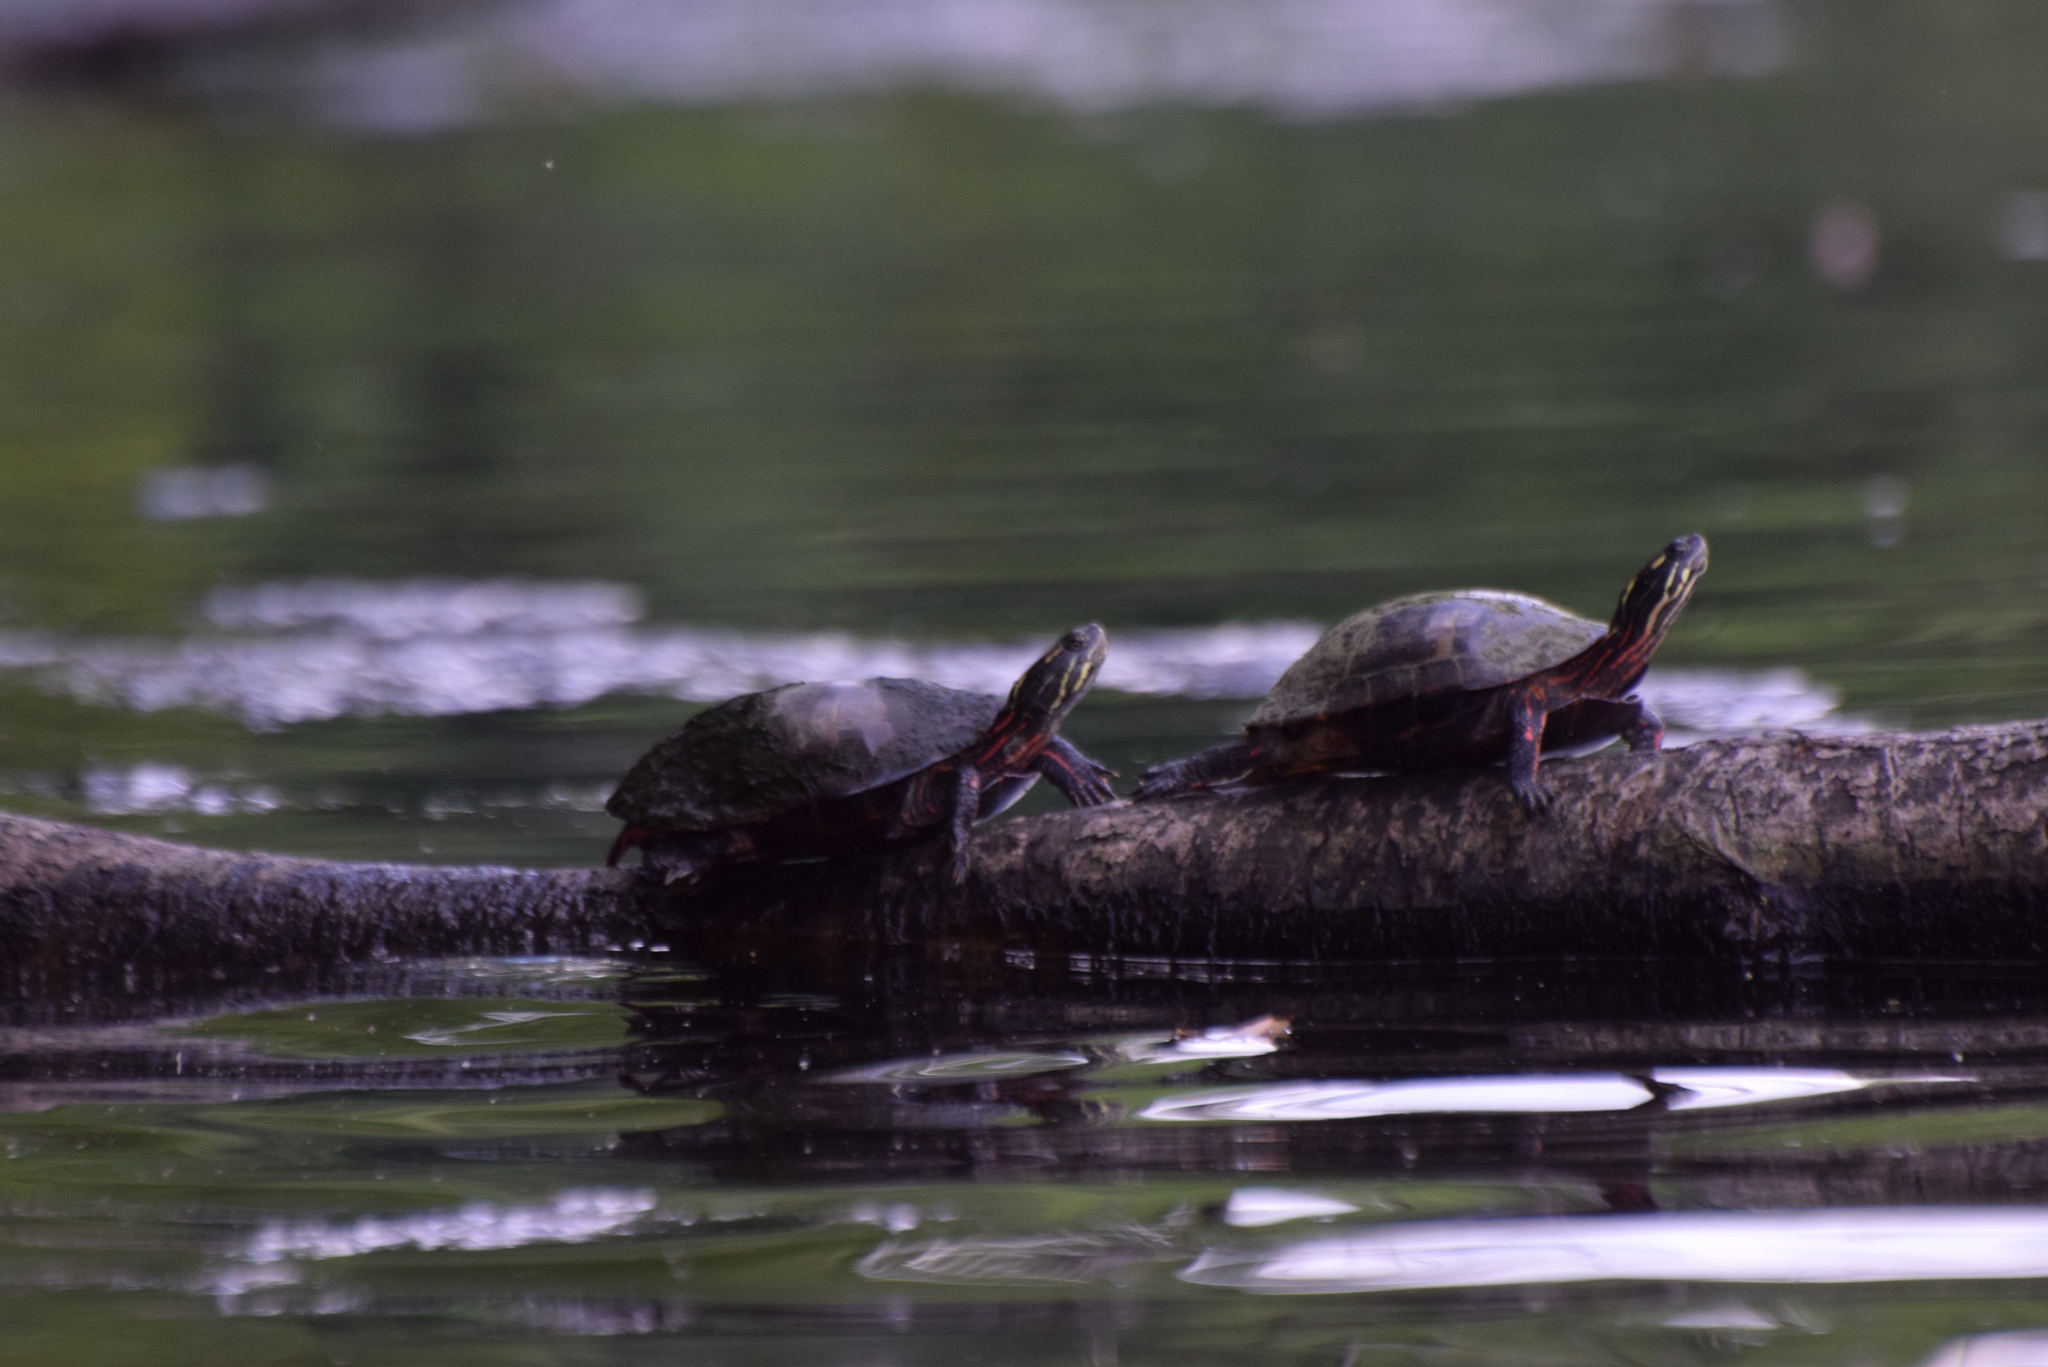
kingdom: Animalia
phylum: Chordata
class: Testudines
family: Emydidae
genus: Chrysemys
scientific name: Chrysemys picta
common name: Painted turtle
